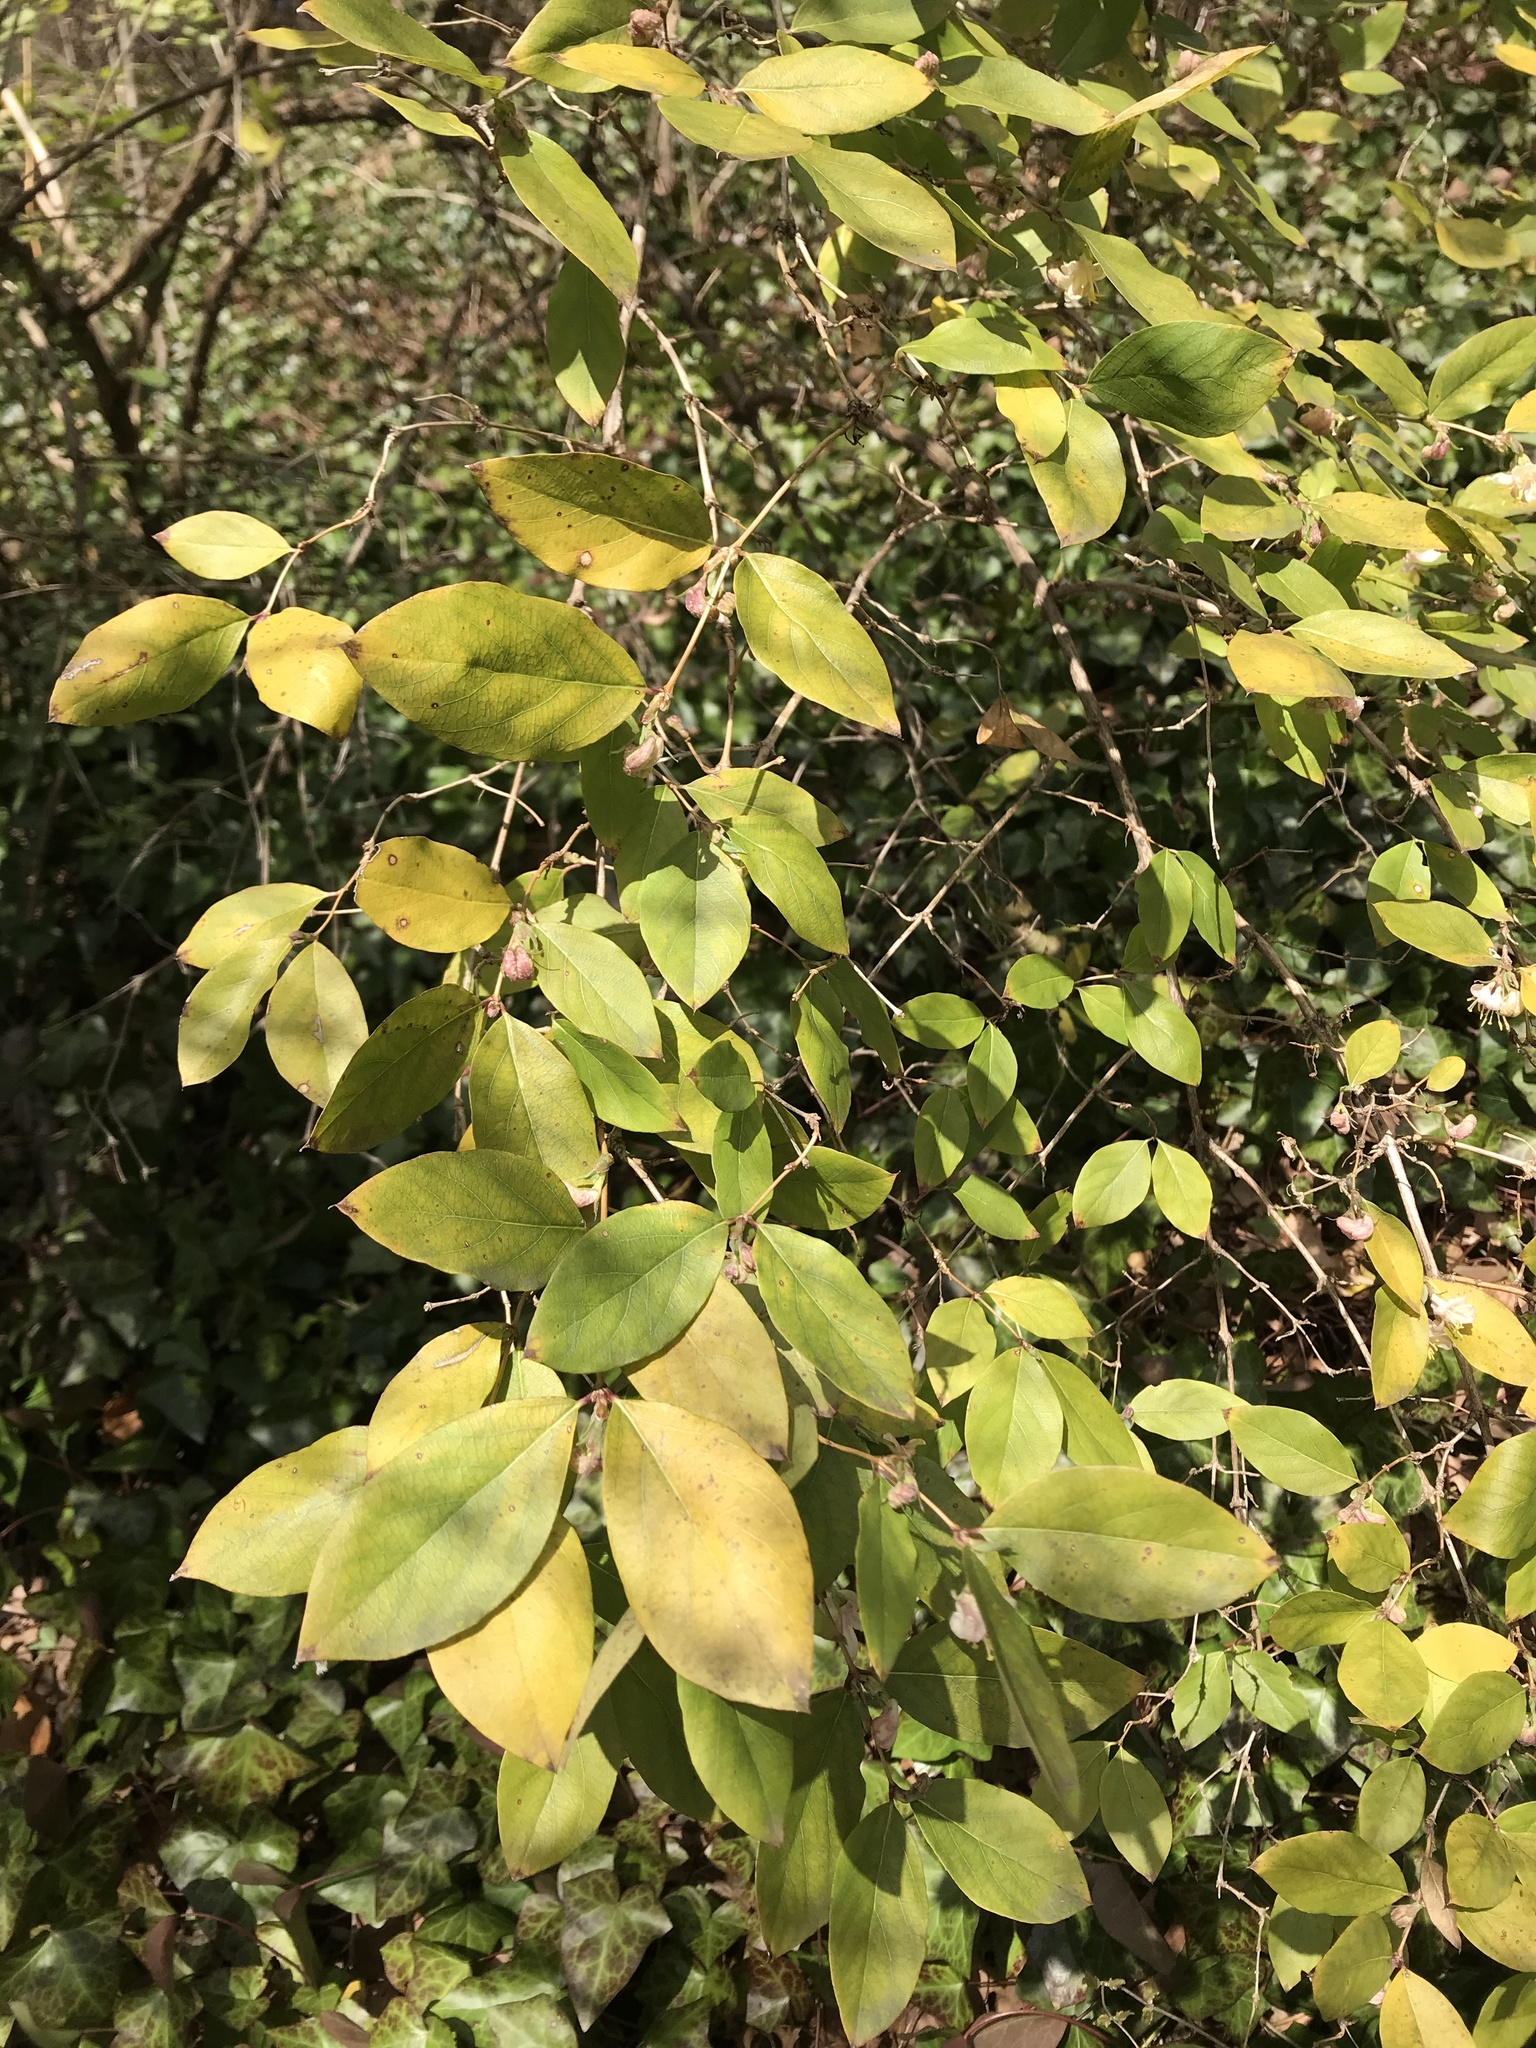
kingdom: Plantae
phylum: Tracheophyta
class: Magnoliopsida
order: Dipsacales
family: Caprifoliaceae
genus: Lonicera
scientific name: Lonicera fragrantissima
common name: Fragrant honeysuckle
